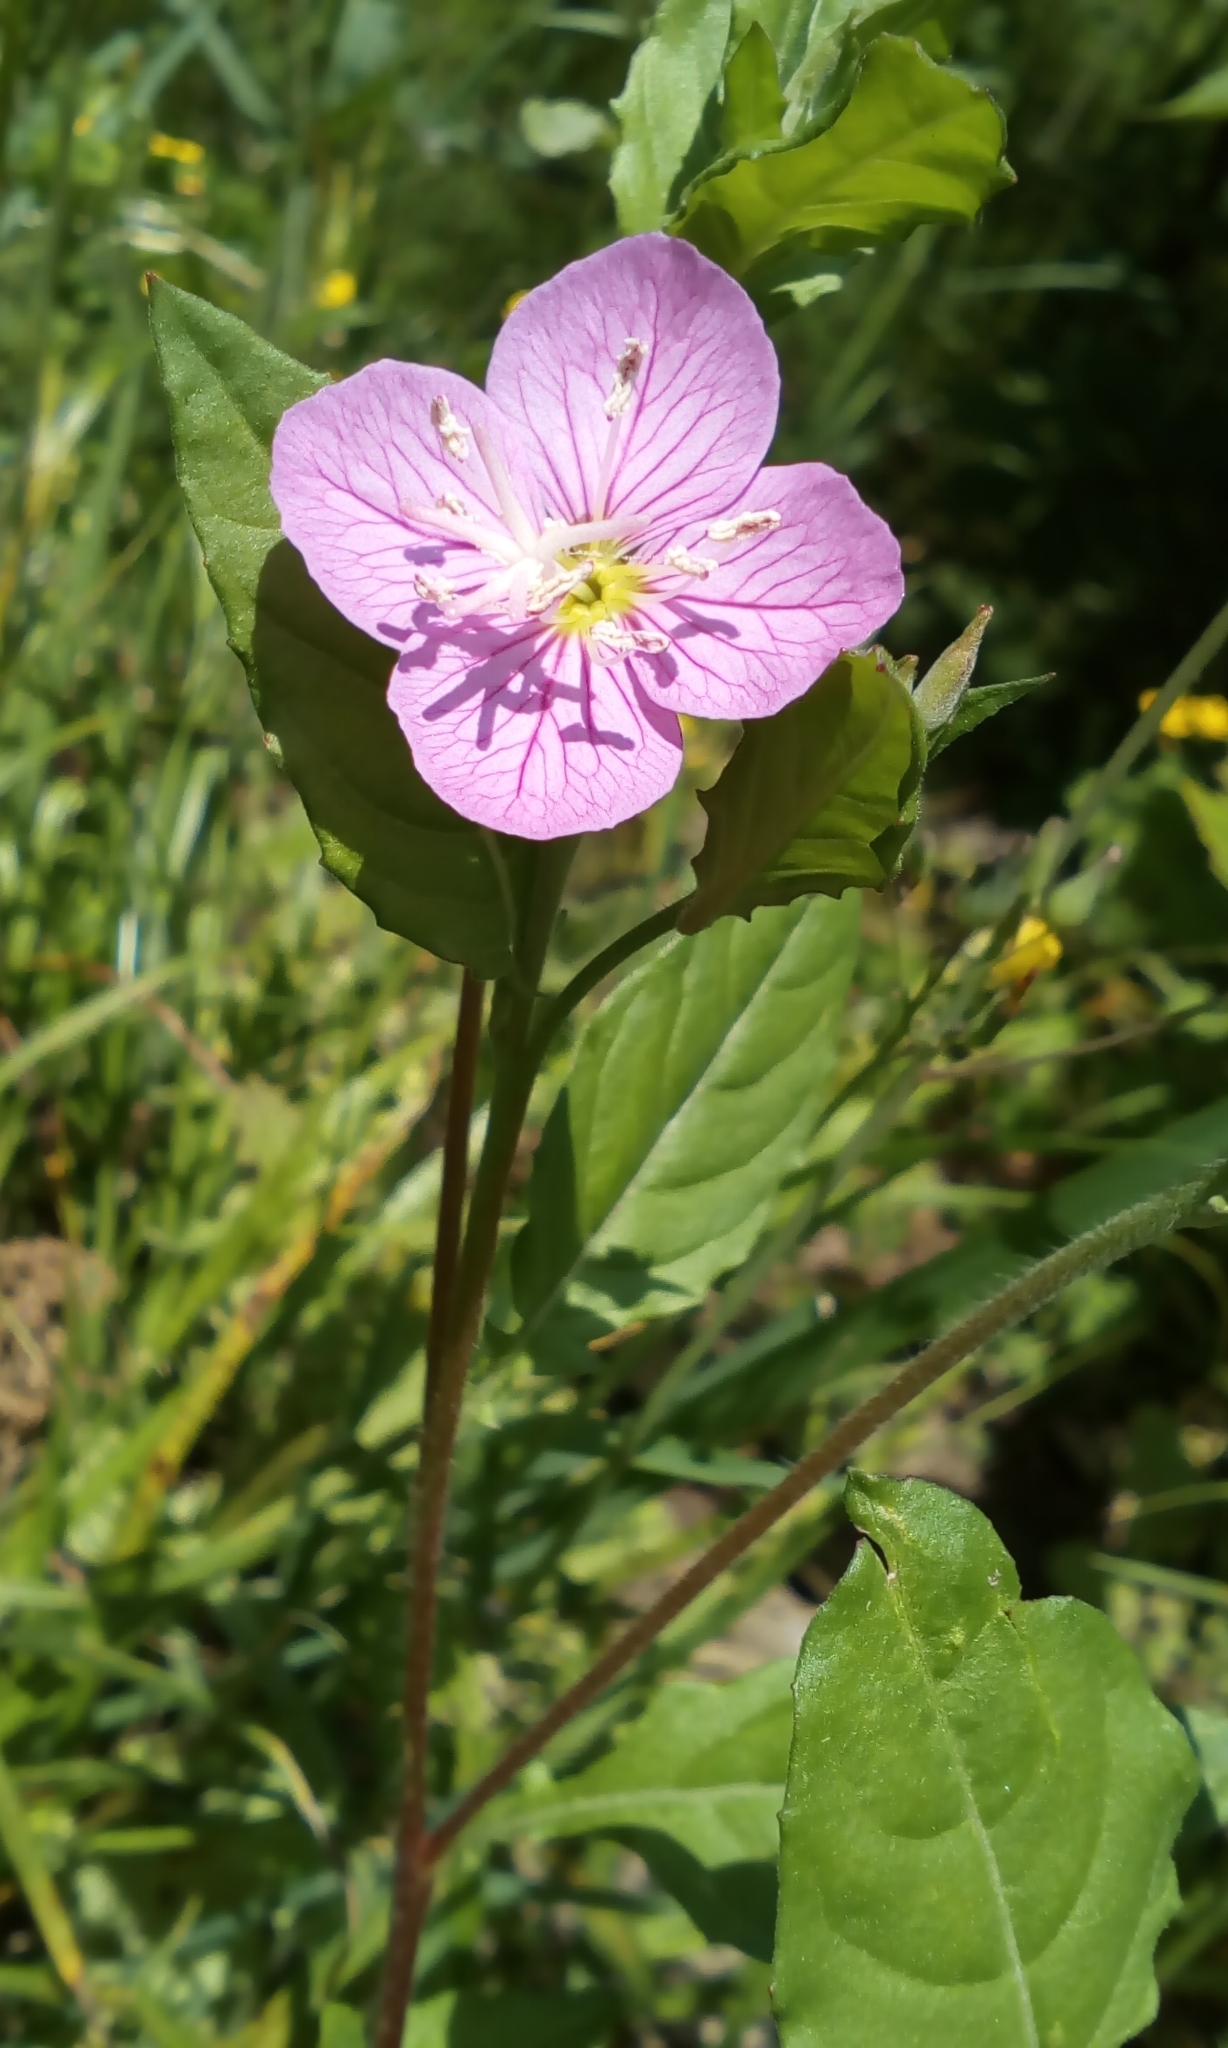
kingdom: Plantae
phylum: Tracheophyta
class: Magnoliopsida
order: Myrtales
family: Onagraceae
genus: Oenothera
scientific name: Oenothera rosea
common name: Rosy evening-primrose
